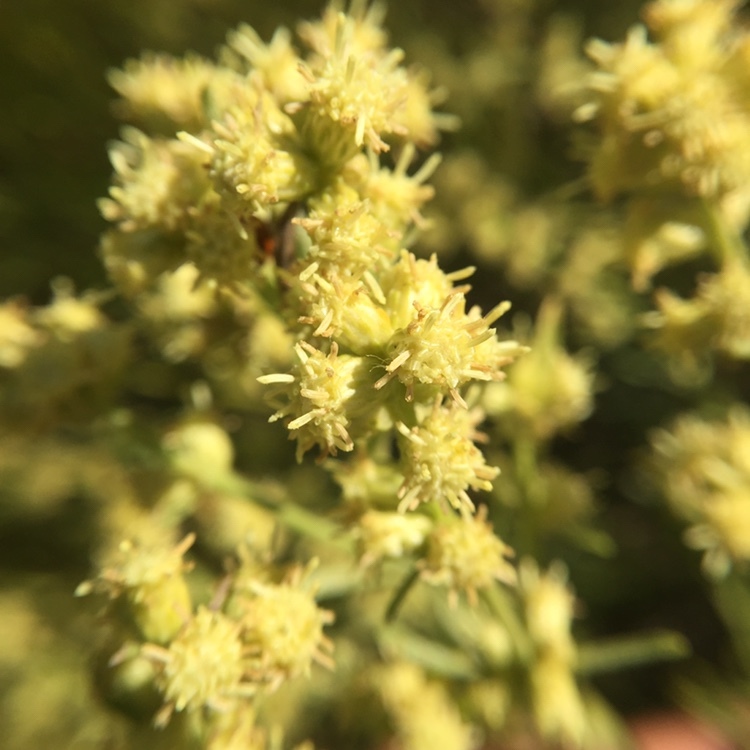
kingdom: Plantae
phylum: Tracheophyta
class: Magnoliopsida
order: Asterales
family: Asteraceae
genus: Baccharis
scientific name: Baccharis spicata
